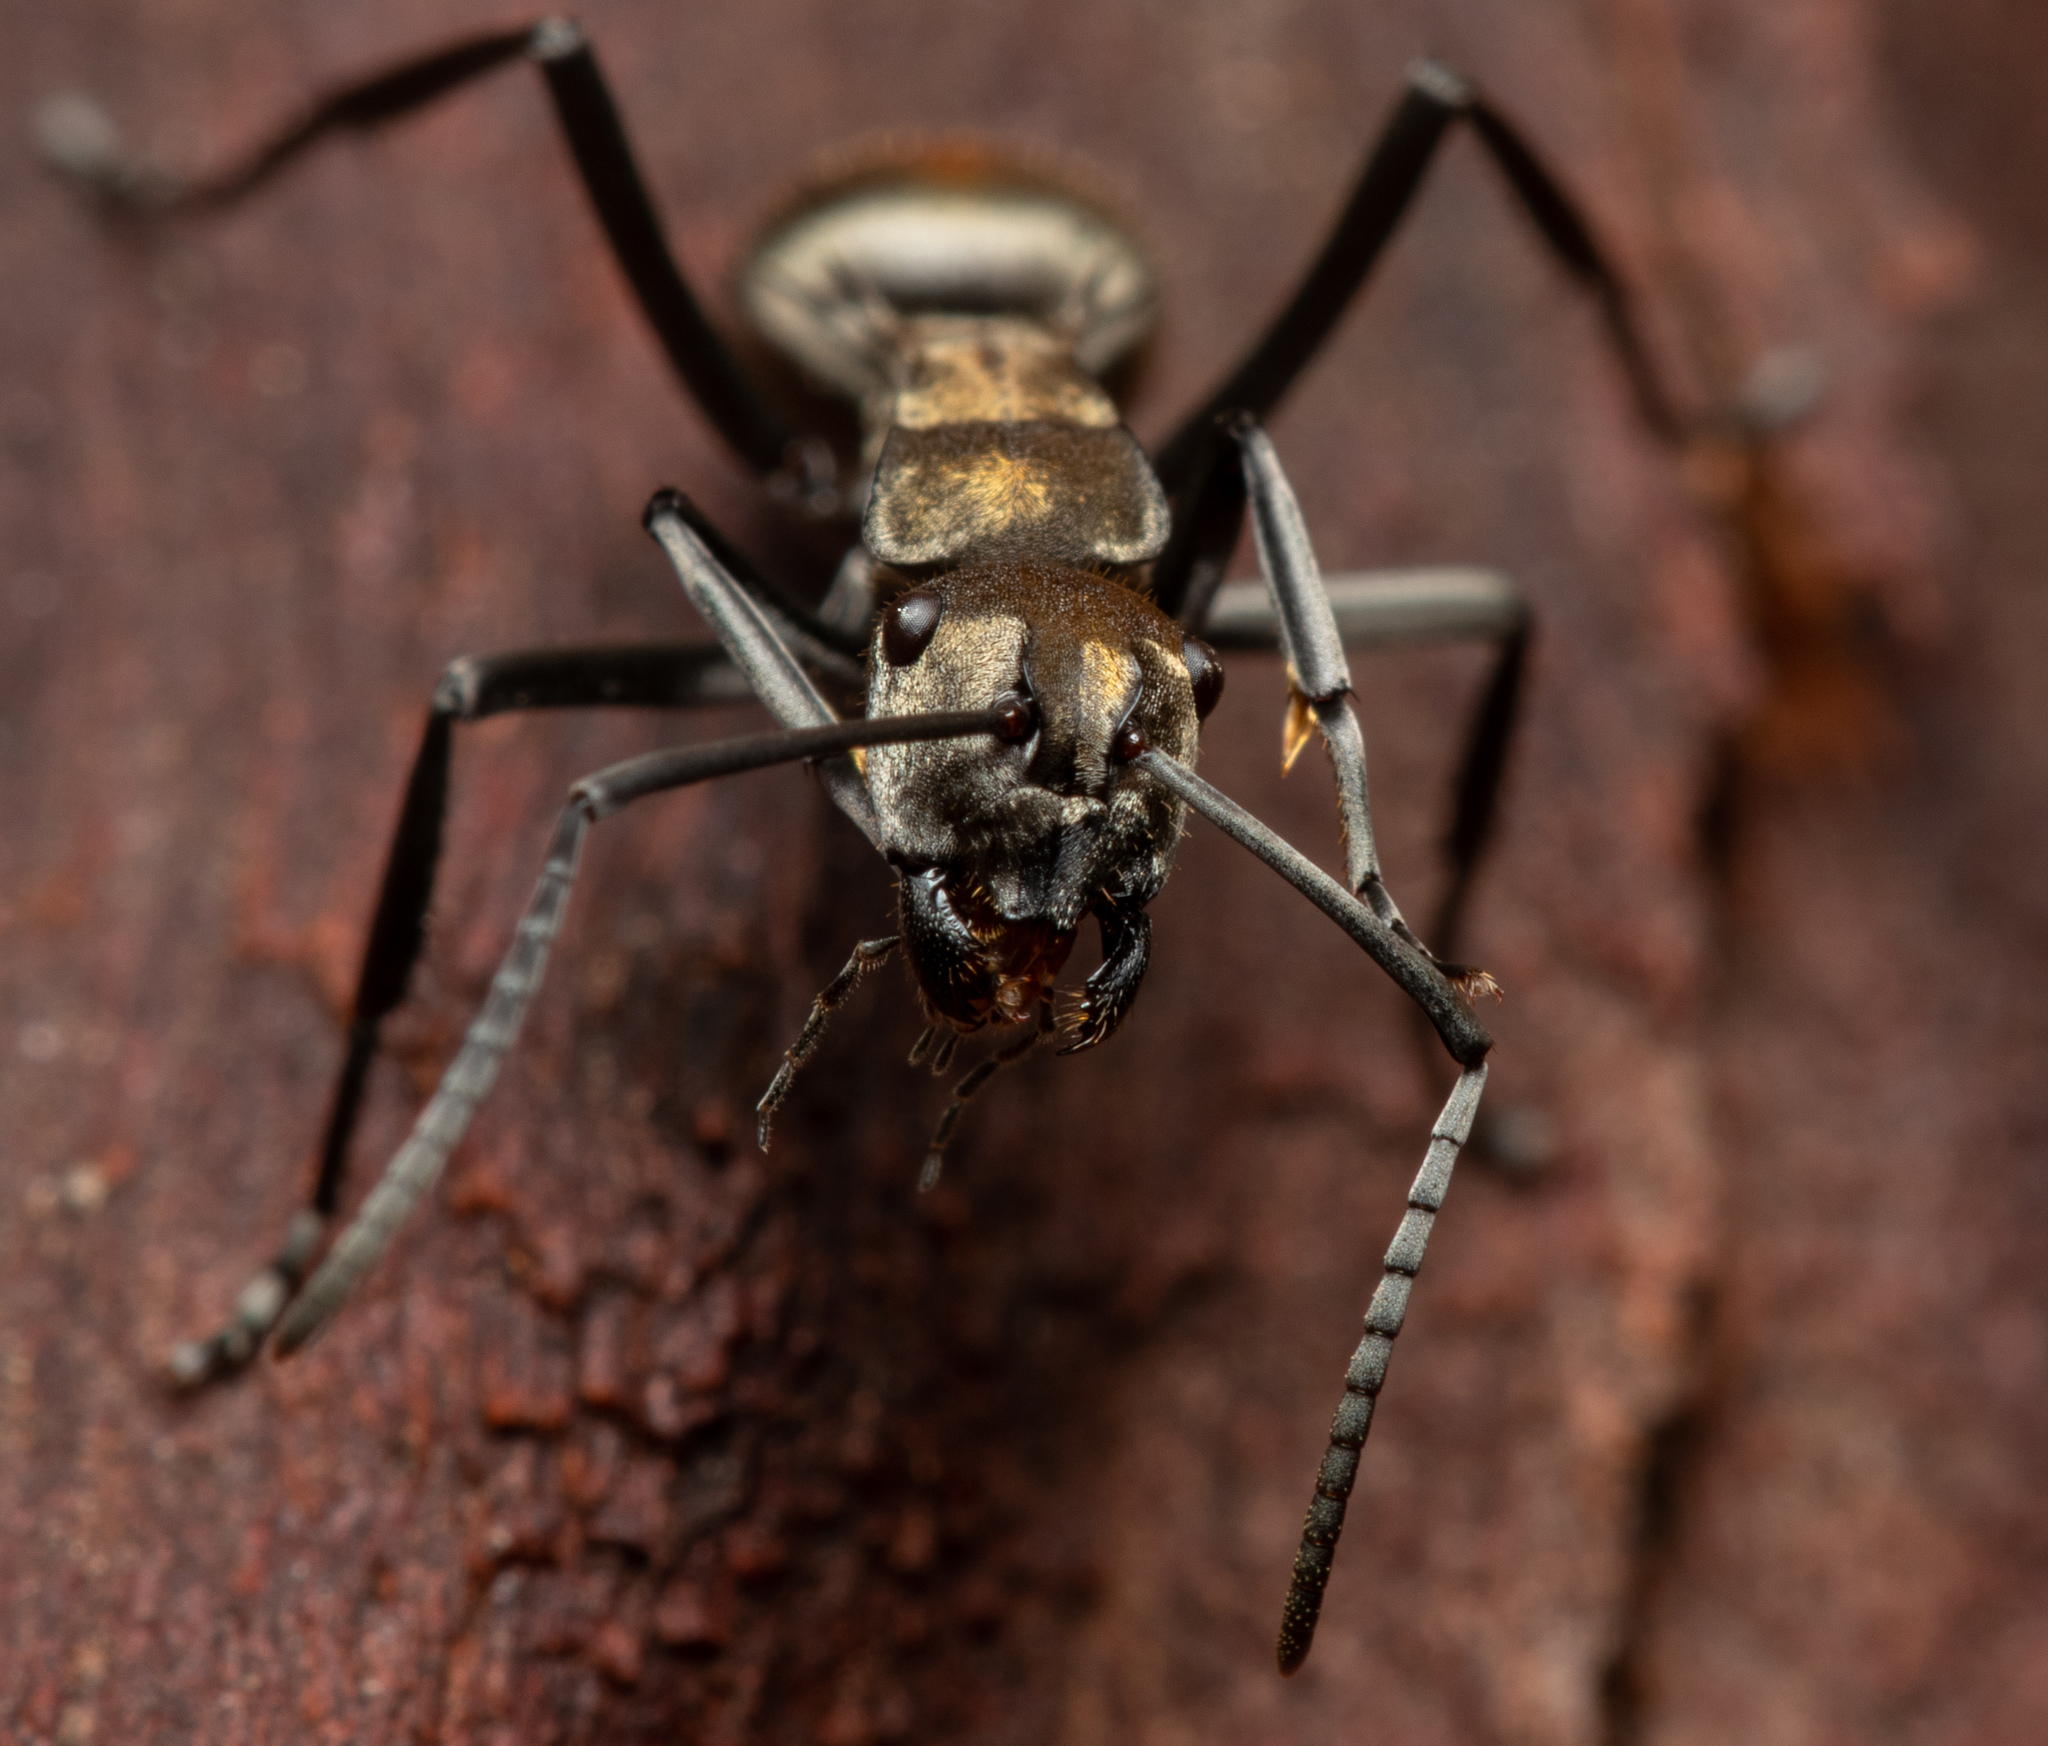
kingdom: Animalia
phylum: Arthropoda
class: Insecta
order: Hymenoptera
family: Formicidae
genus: Polyrhachis
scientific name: Polyrhachis trapezoidea
